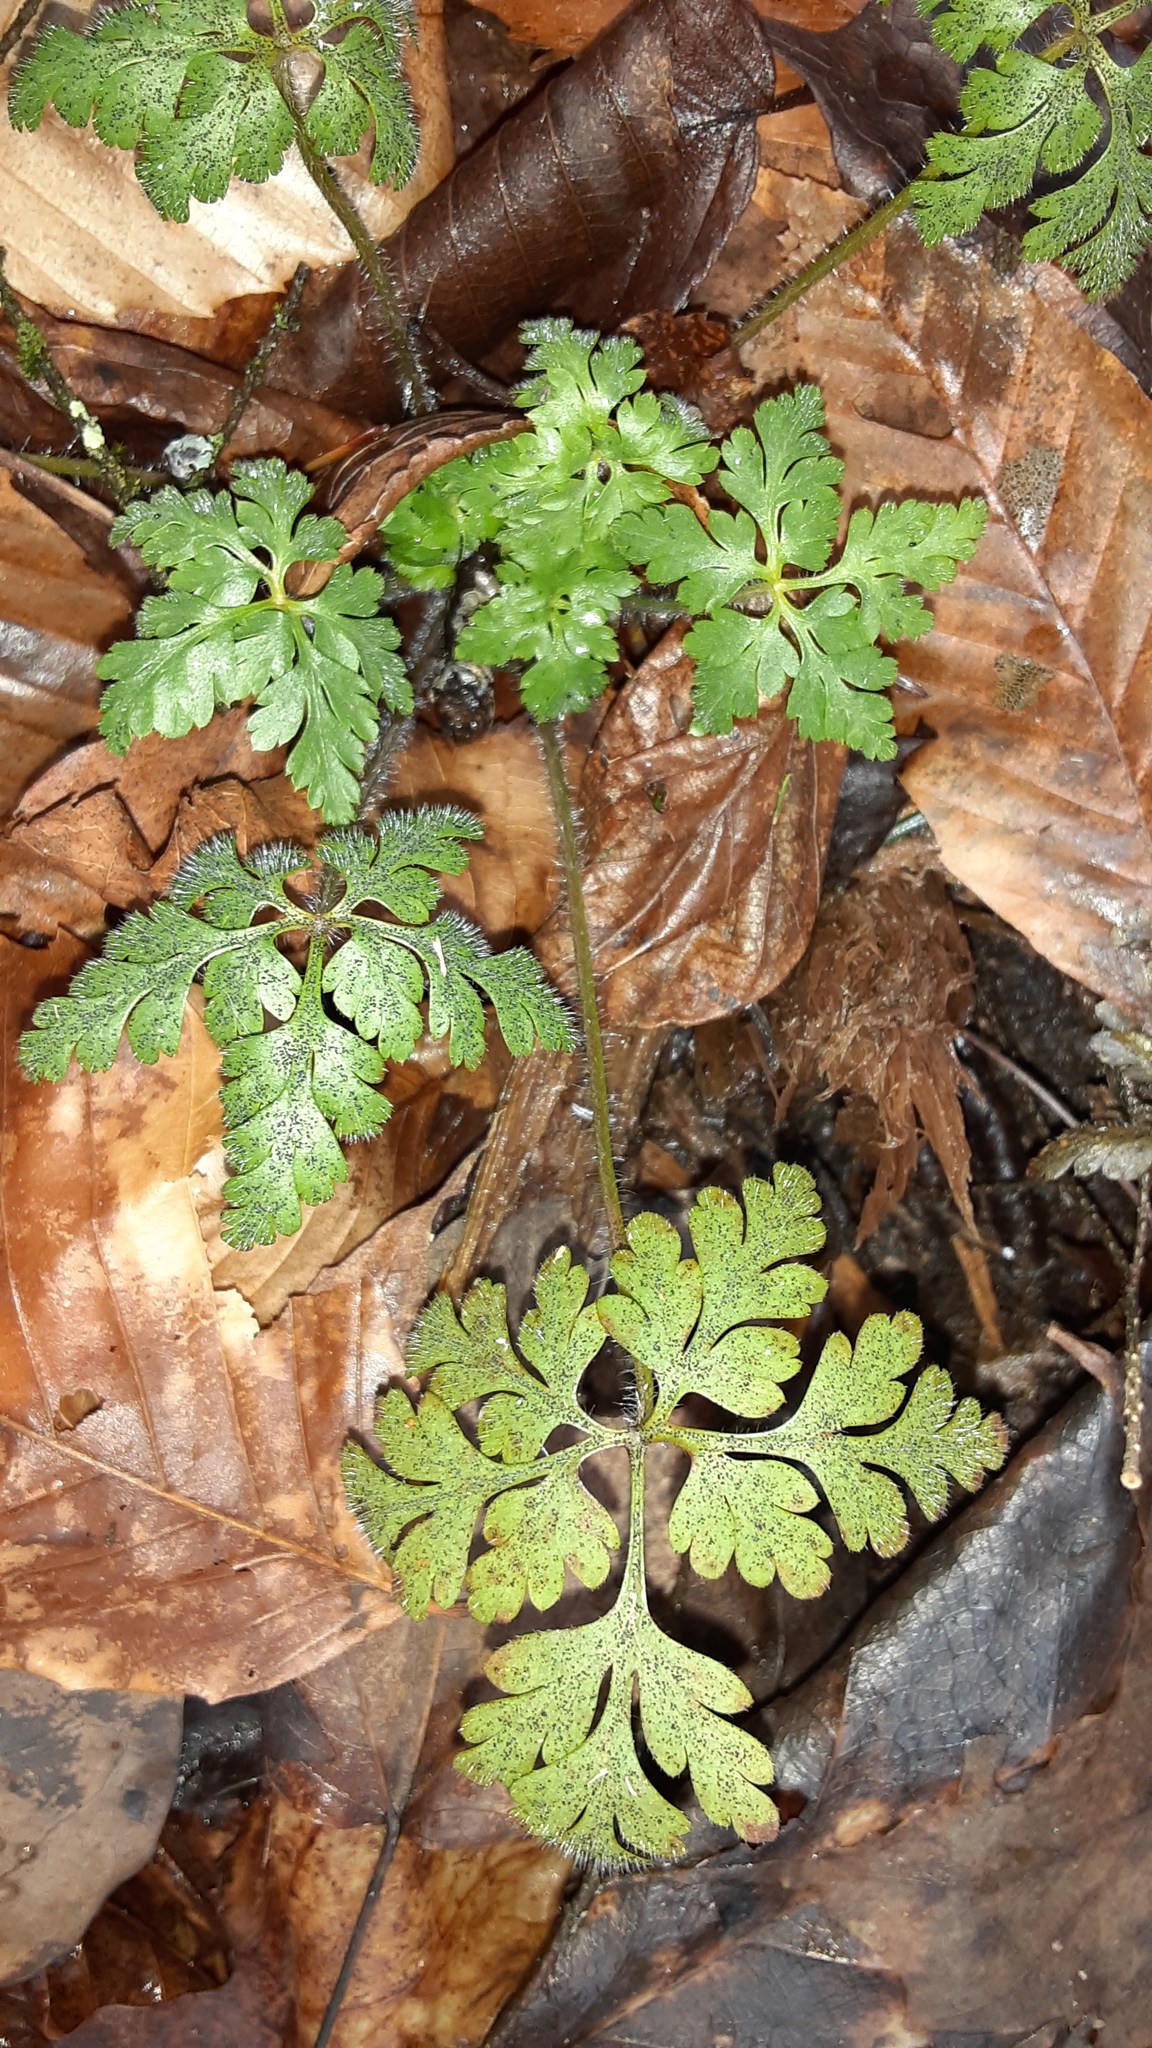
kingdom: Plantae
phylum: Tracheophyta
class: Magnoliopsida
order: Geraniales
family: Geraniaceae
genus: Geranium
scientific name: Geranium robertianum
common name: Herb-robert
